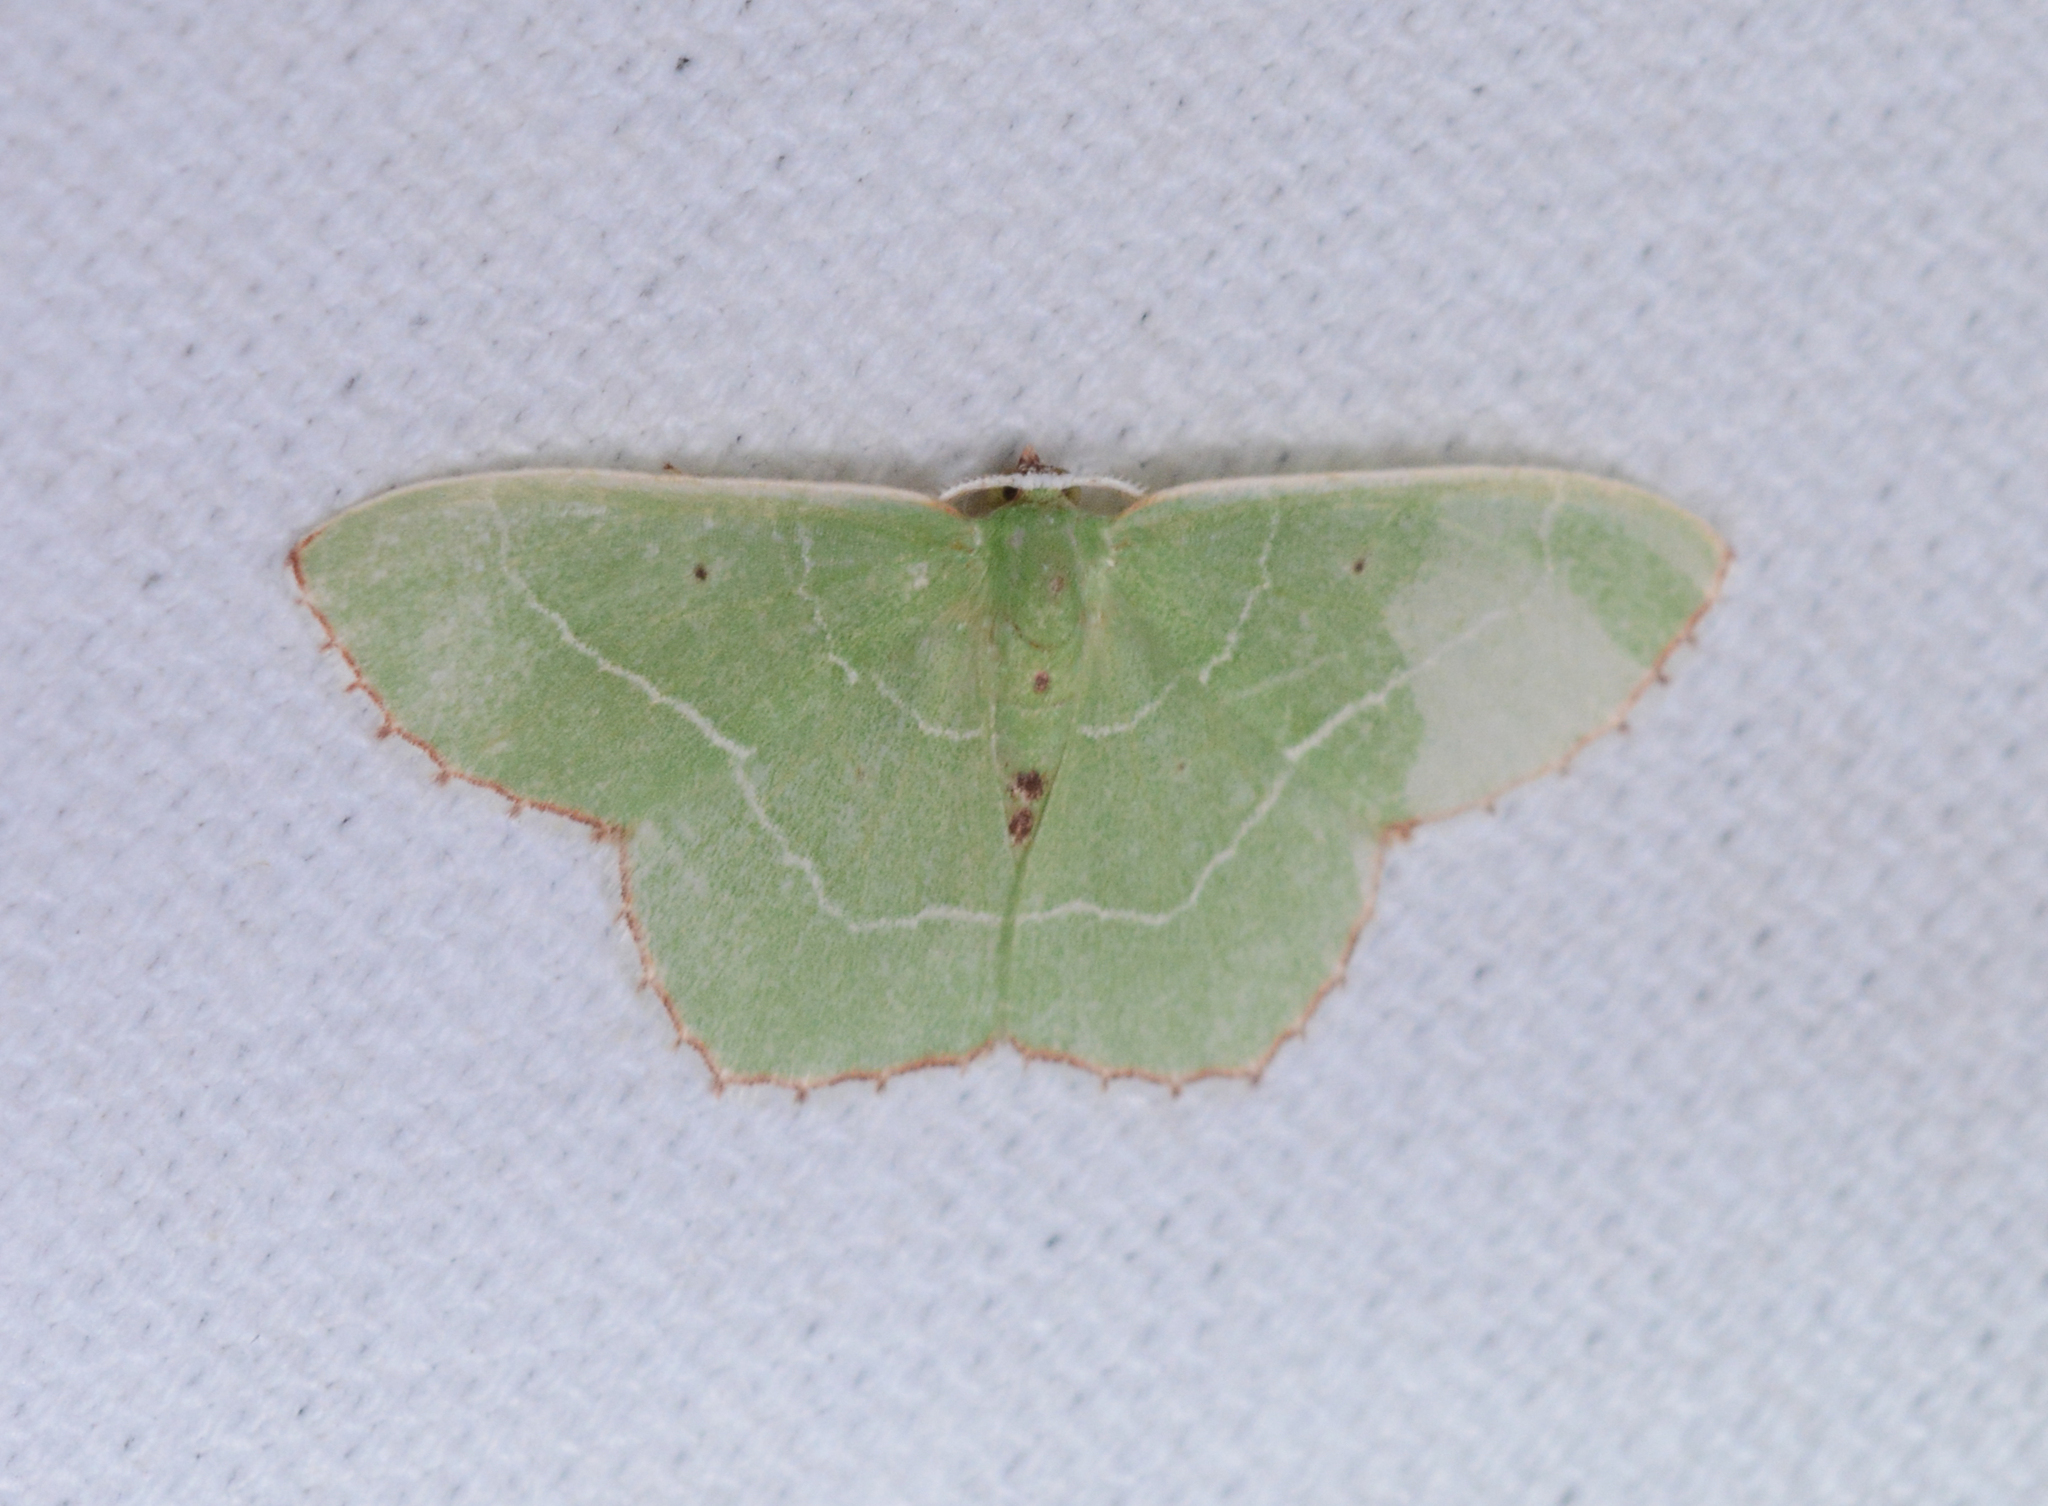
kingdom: Animalia
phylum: Arthropoda
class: Insecta
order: Lepidoptera
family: Geometridae
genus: Nemoria
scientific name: Nemoria saturiba
